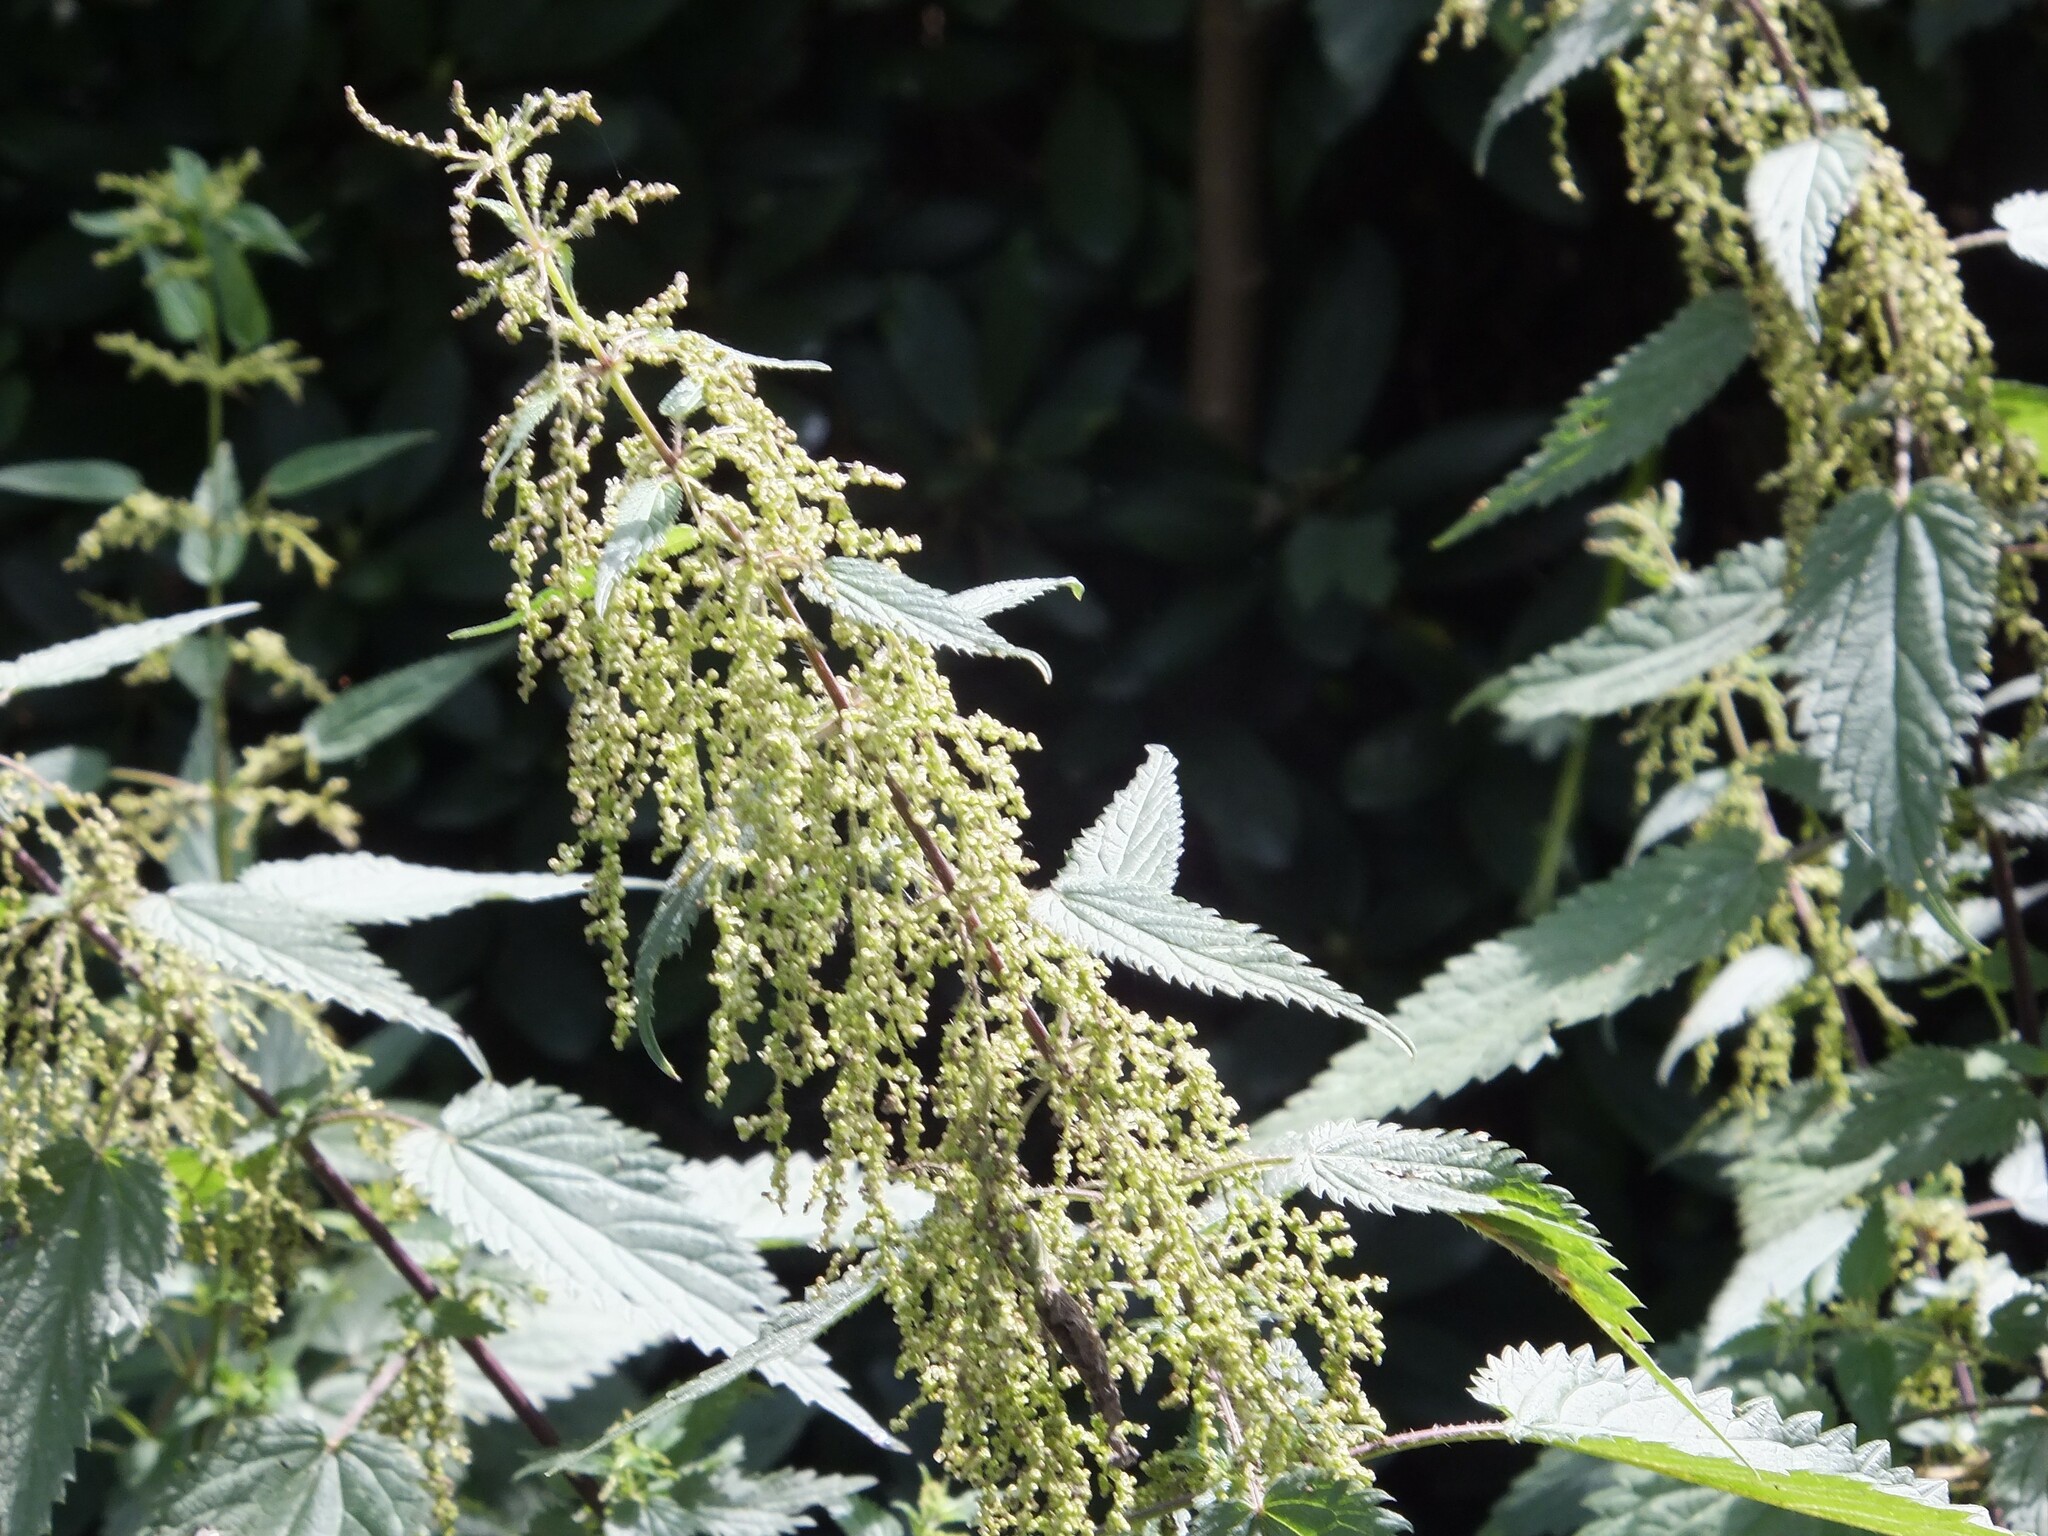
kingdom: Plantae
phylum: Tracheophyta
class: Magnoliopsida
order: Rosales
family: Urticaceae
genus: Urtica
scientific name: Urtica dioica
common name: Common nettle
